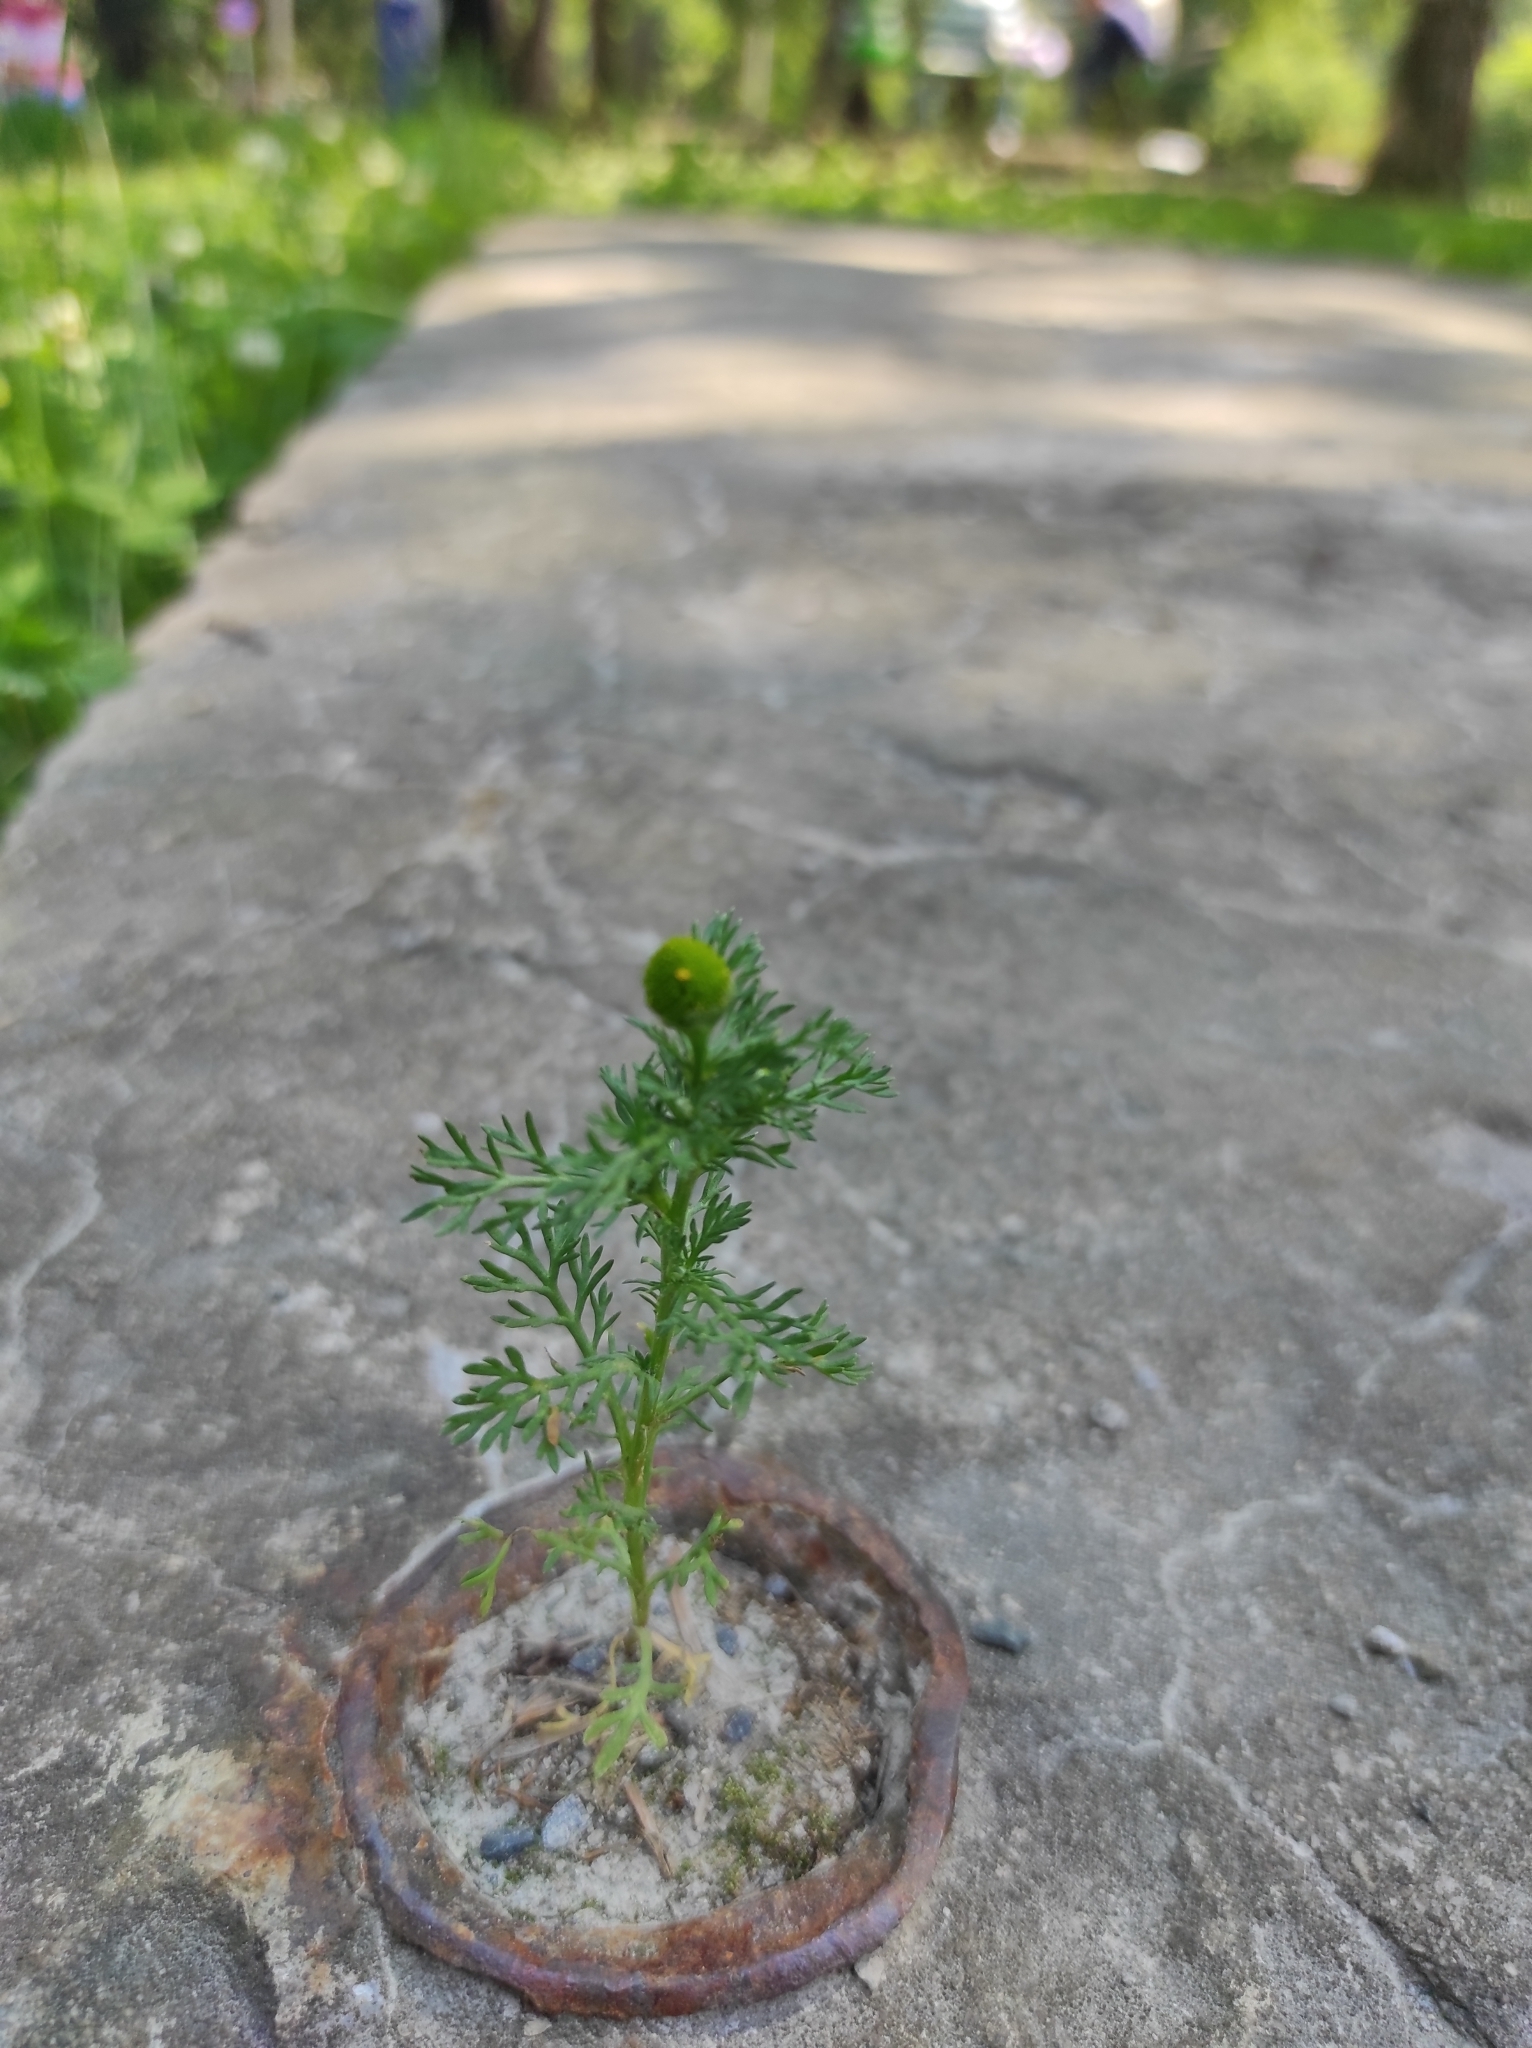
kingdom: Plantae
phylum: Tracheophyta
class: Magnoliopsida
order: Asterales
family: Asteraceae
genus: Matricaria
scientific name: Matricaria discoidea
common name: Disc mayweed
